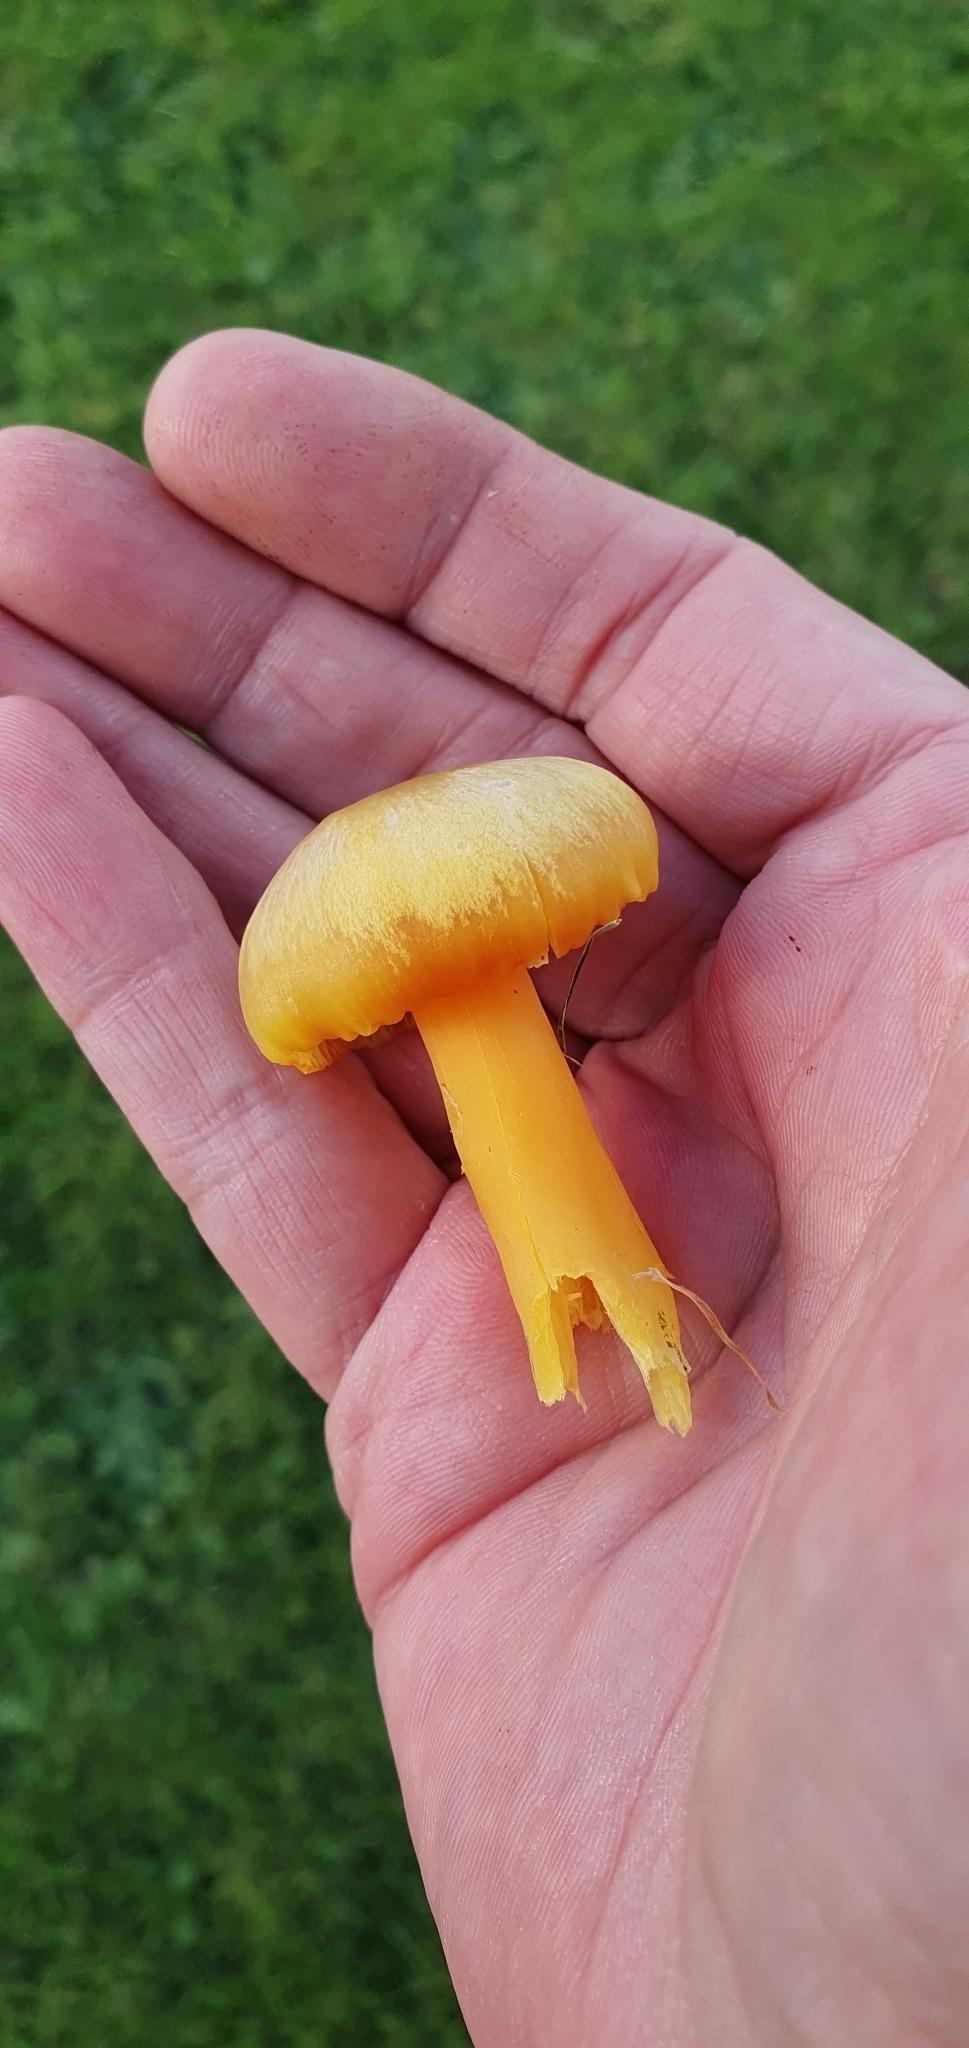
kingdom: Fungi
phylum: Basidiomycota
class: Agaricomycetes
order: Agaricales
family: Hygrophoraceae
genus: Hygrocybe
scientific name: Hygrocybe quieta
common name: Oily waxcap
